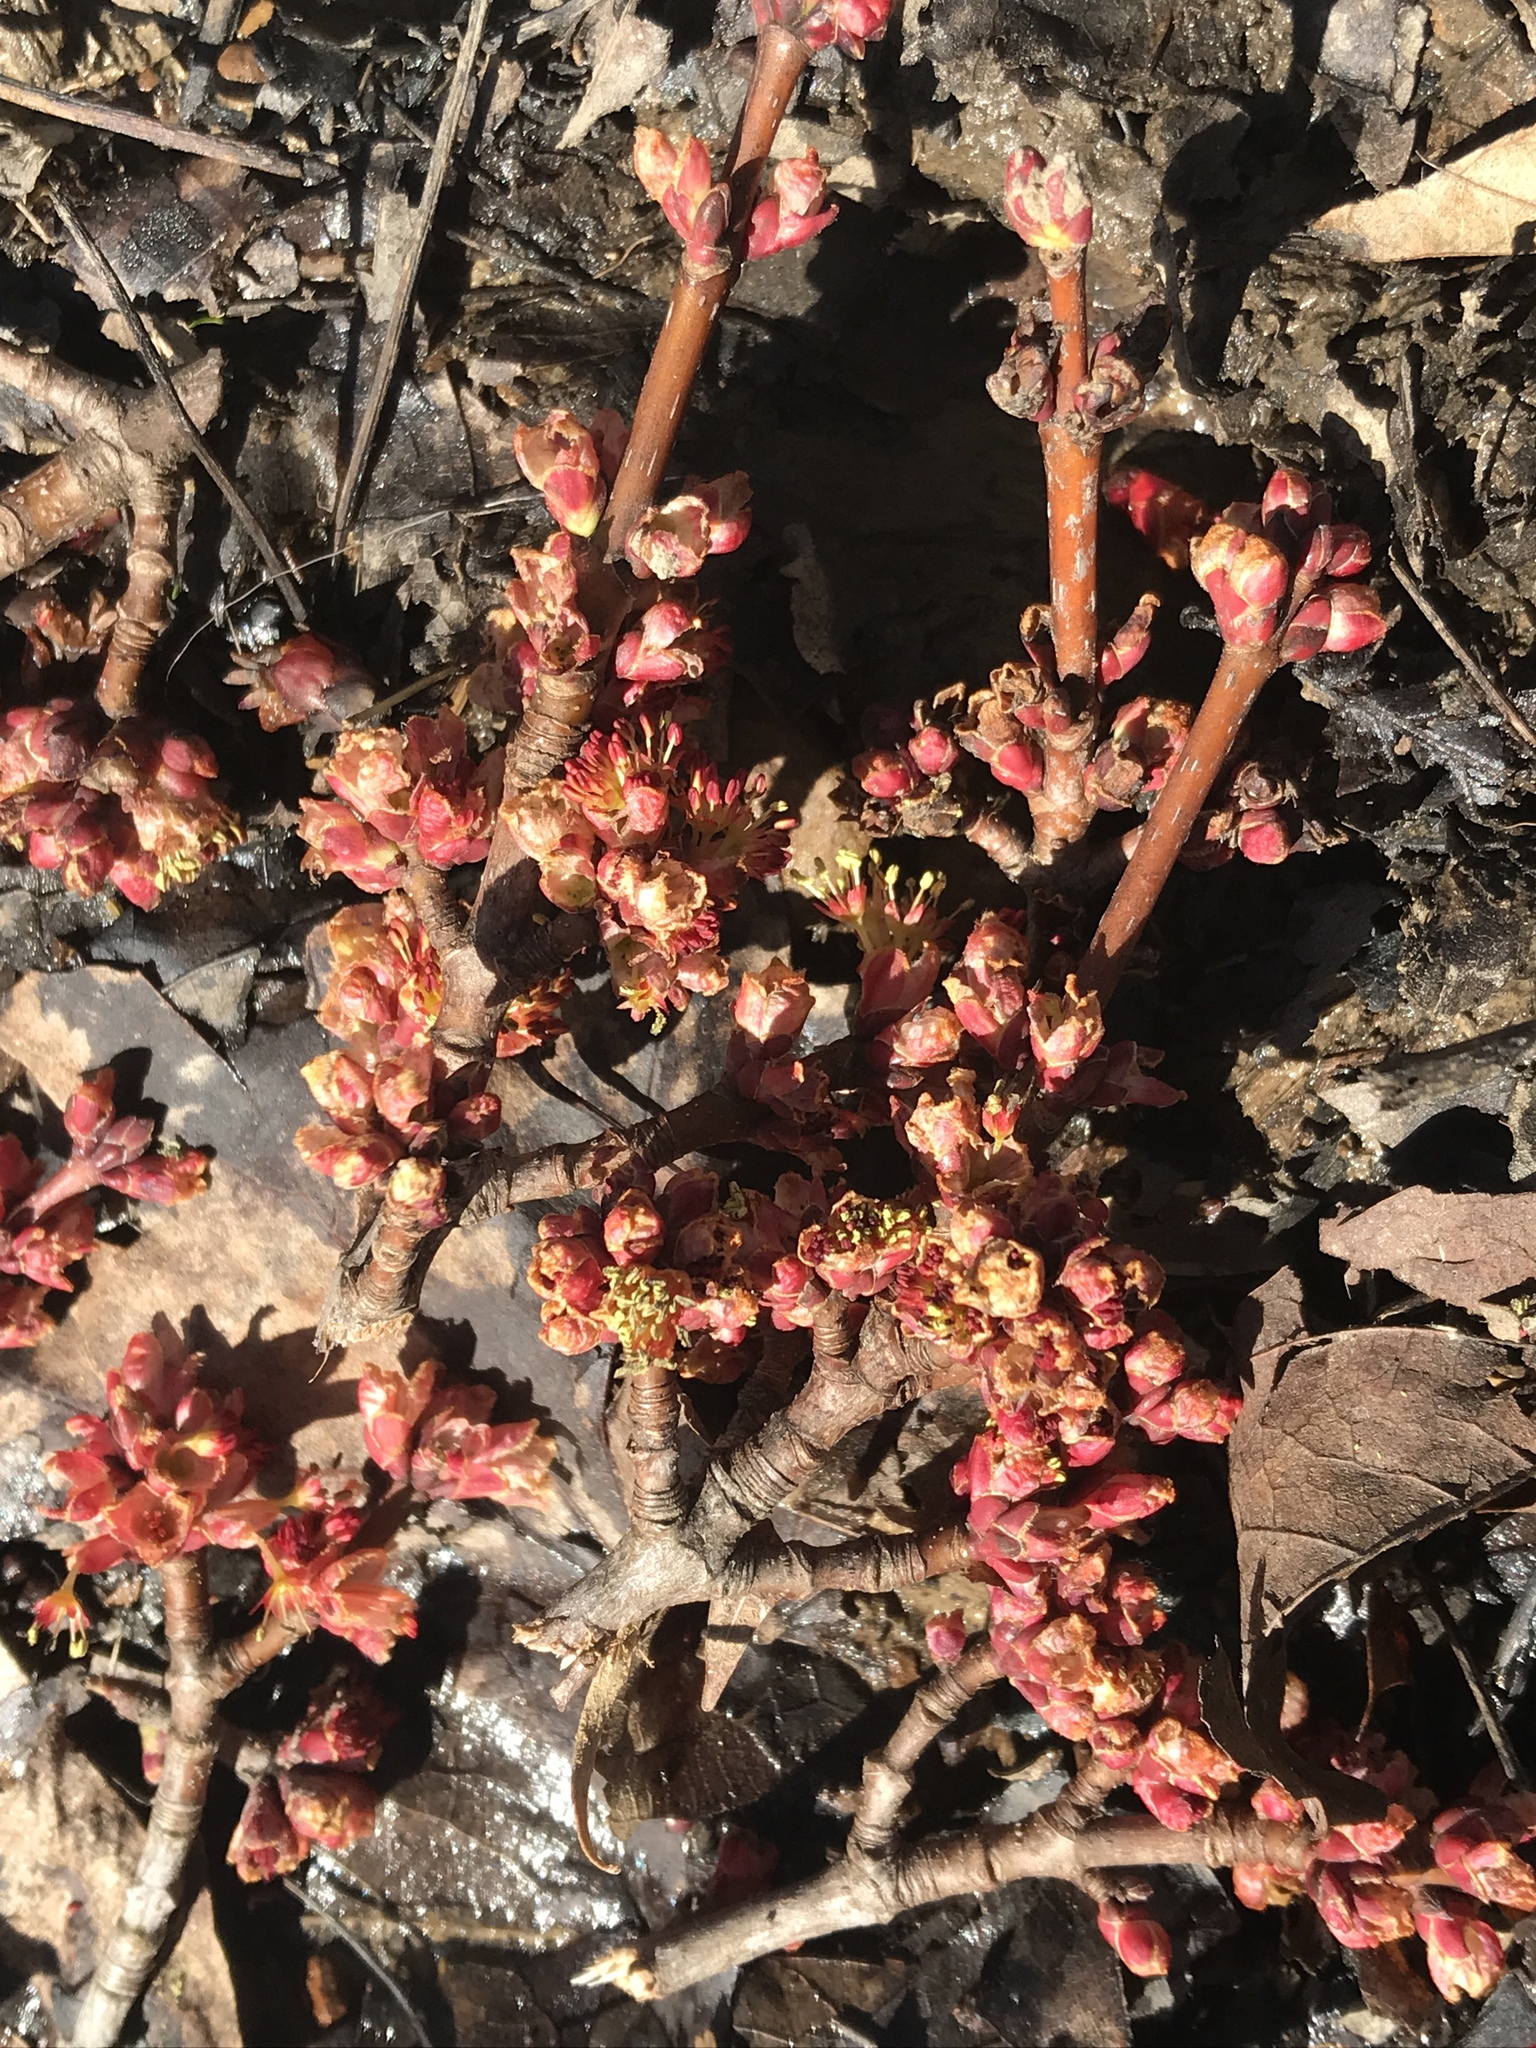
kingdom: Plantae
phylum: Tracheophyta
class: Magnoliopsida
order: Sapindales
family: Sapindaceae
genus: Acer
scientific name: Acer rubrum
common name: Red maple
